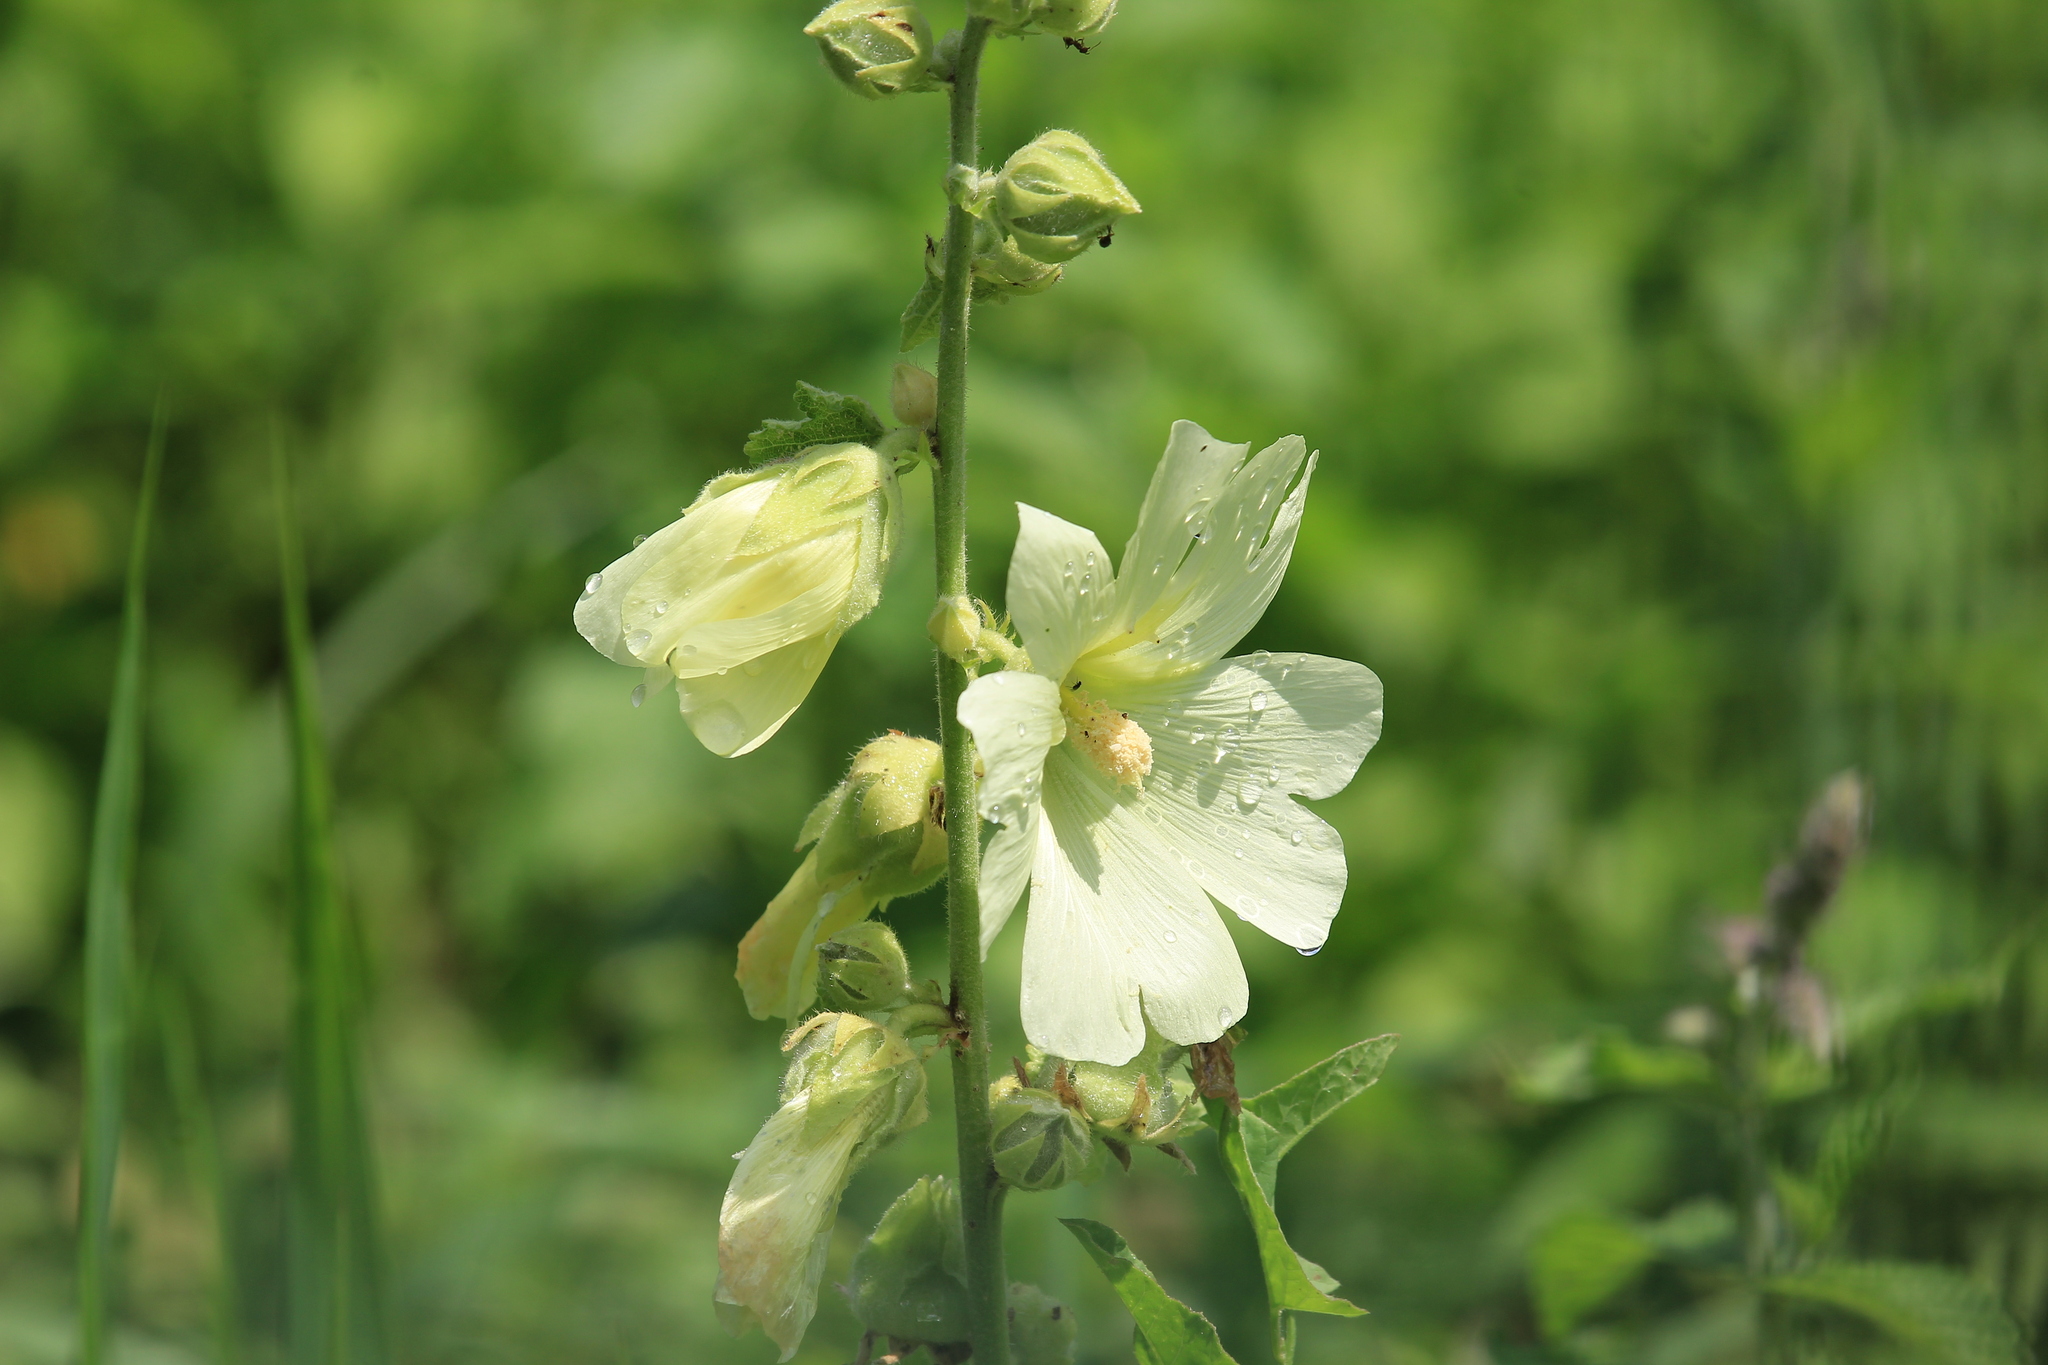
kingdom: Plantae
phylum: Tracheophyta
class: Magnoliopsida
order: Malvales
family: Malvaceae
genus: Alcea
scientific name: Alcea rugosa
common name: Russian hollyhock
